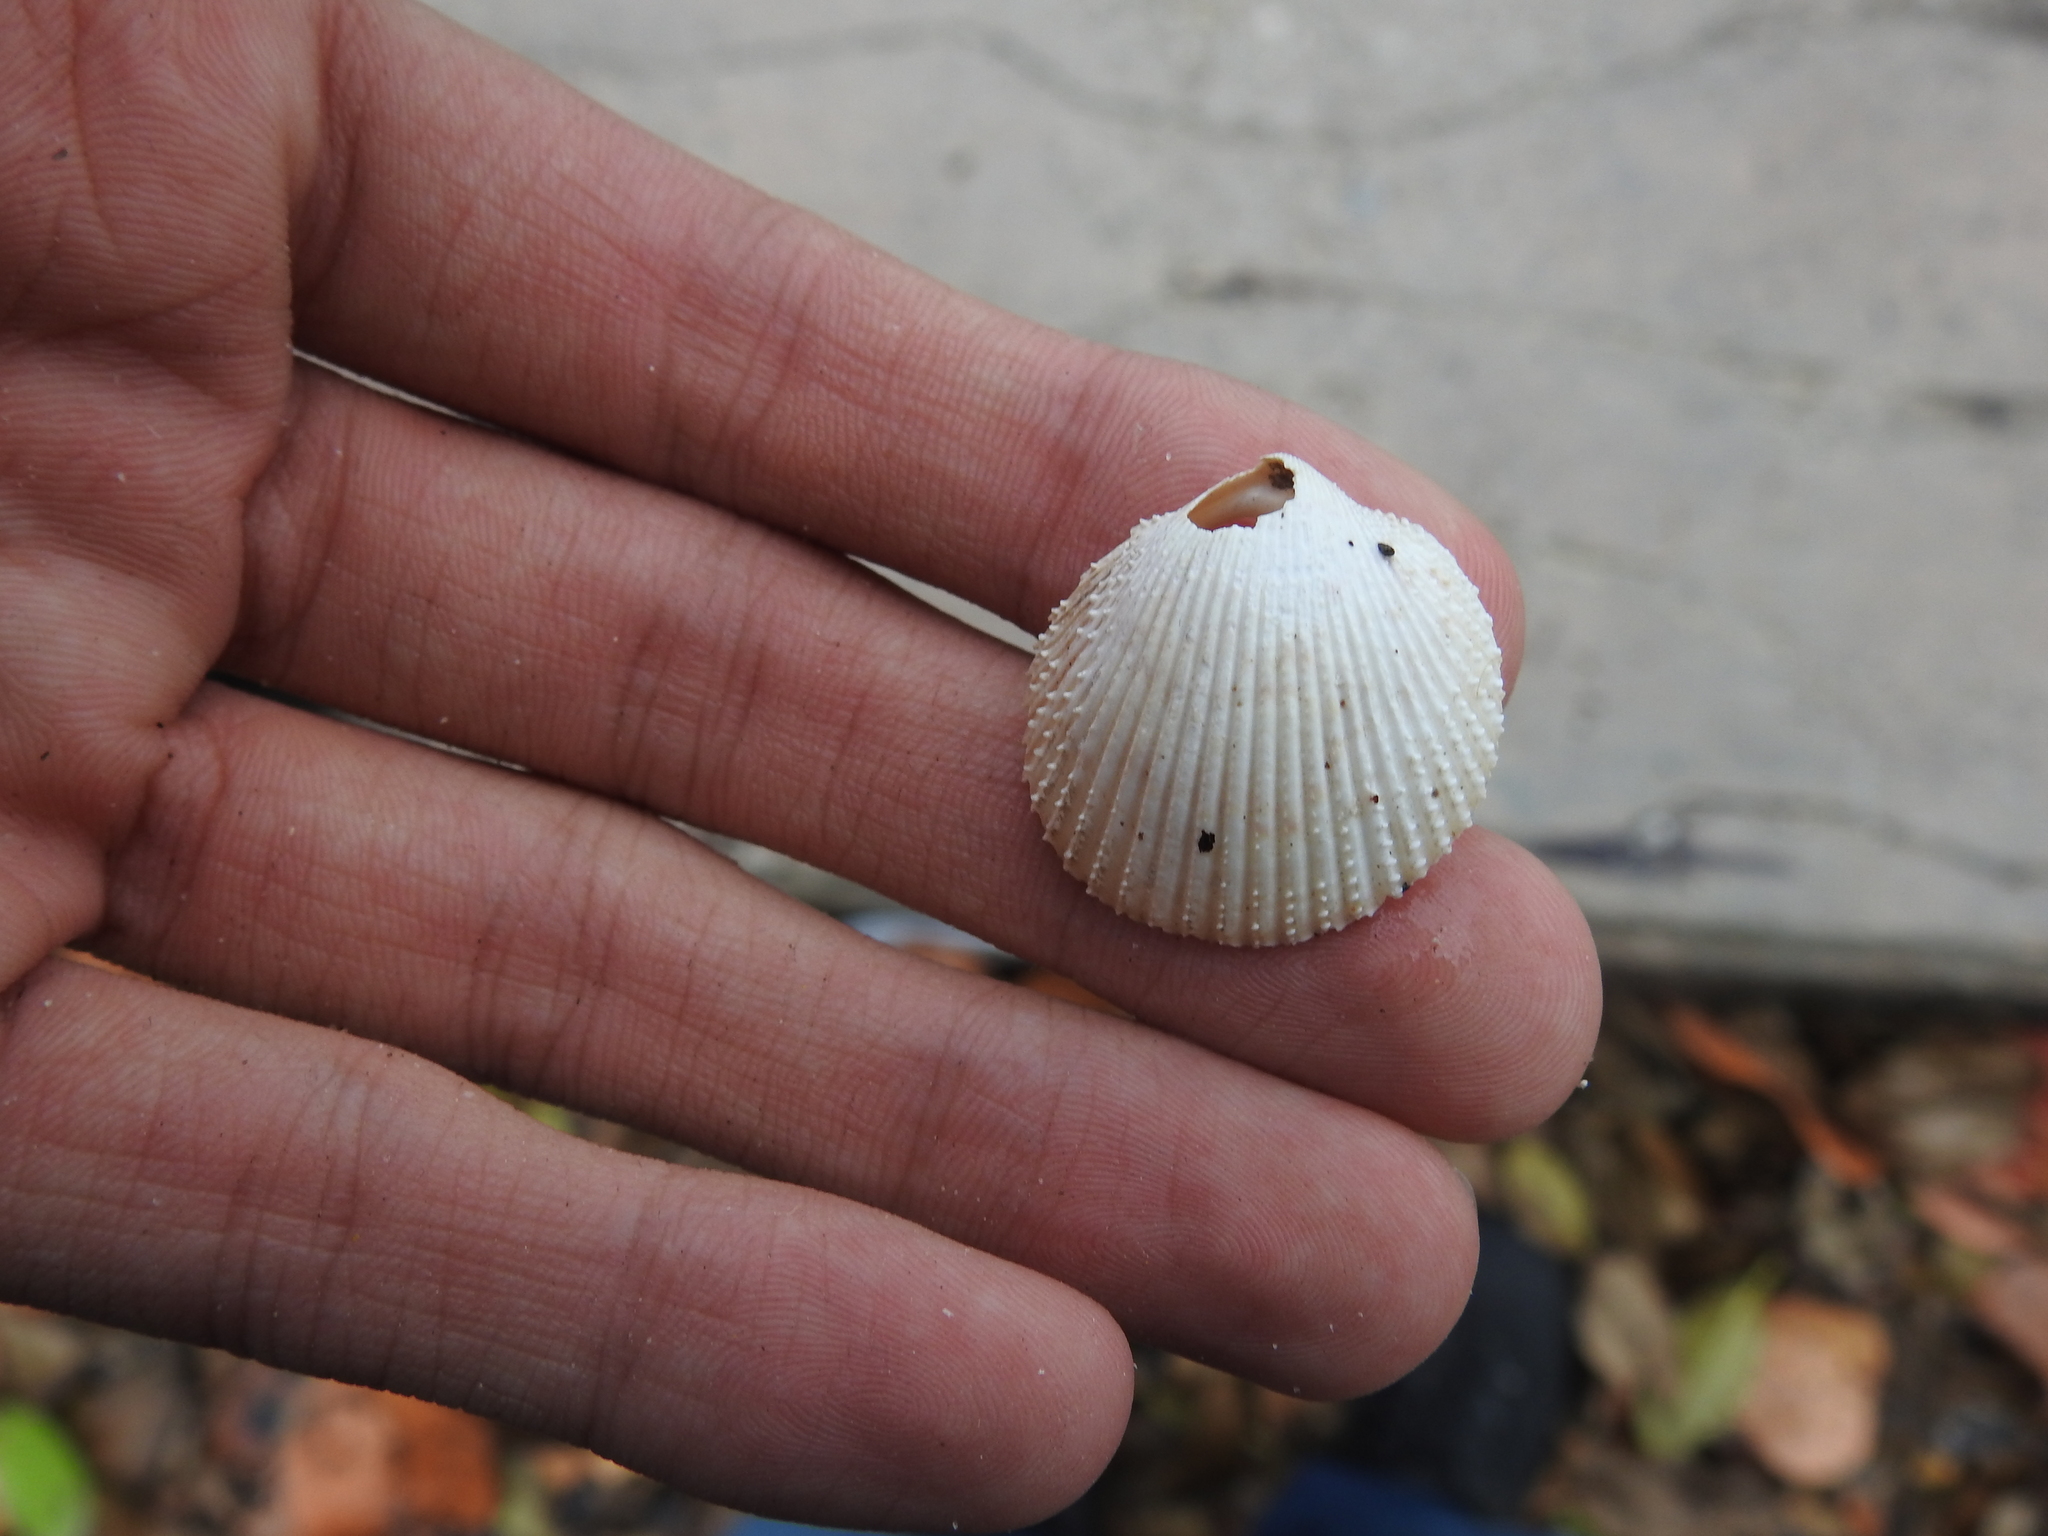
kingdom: Animalia
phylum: Mollusca
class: Bivalvia
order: Cardiida
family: Cardiidae
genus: Dallocardia
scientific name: Dallocardia muricata
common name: Yellow pricklycockle
